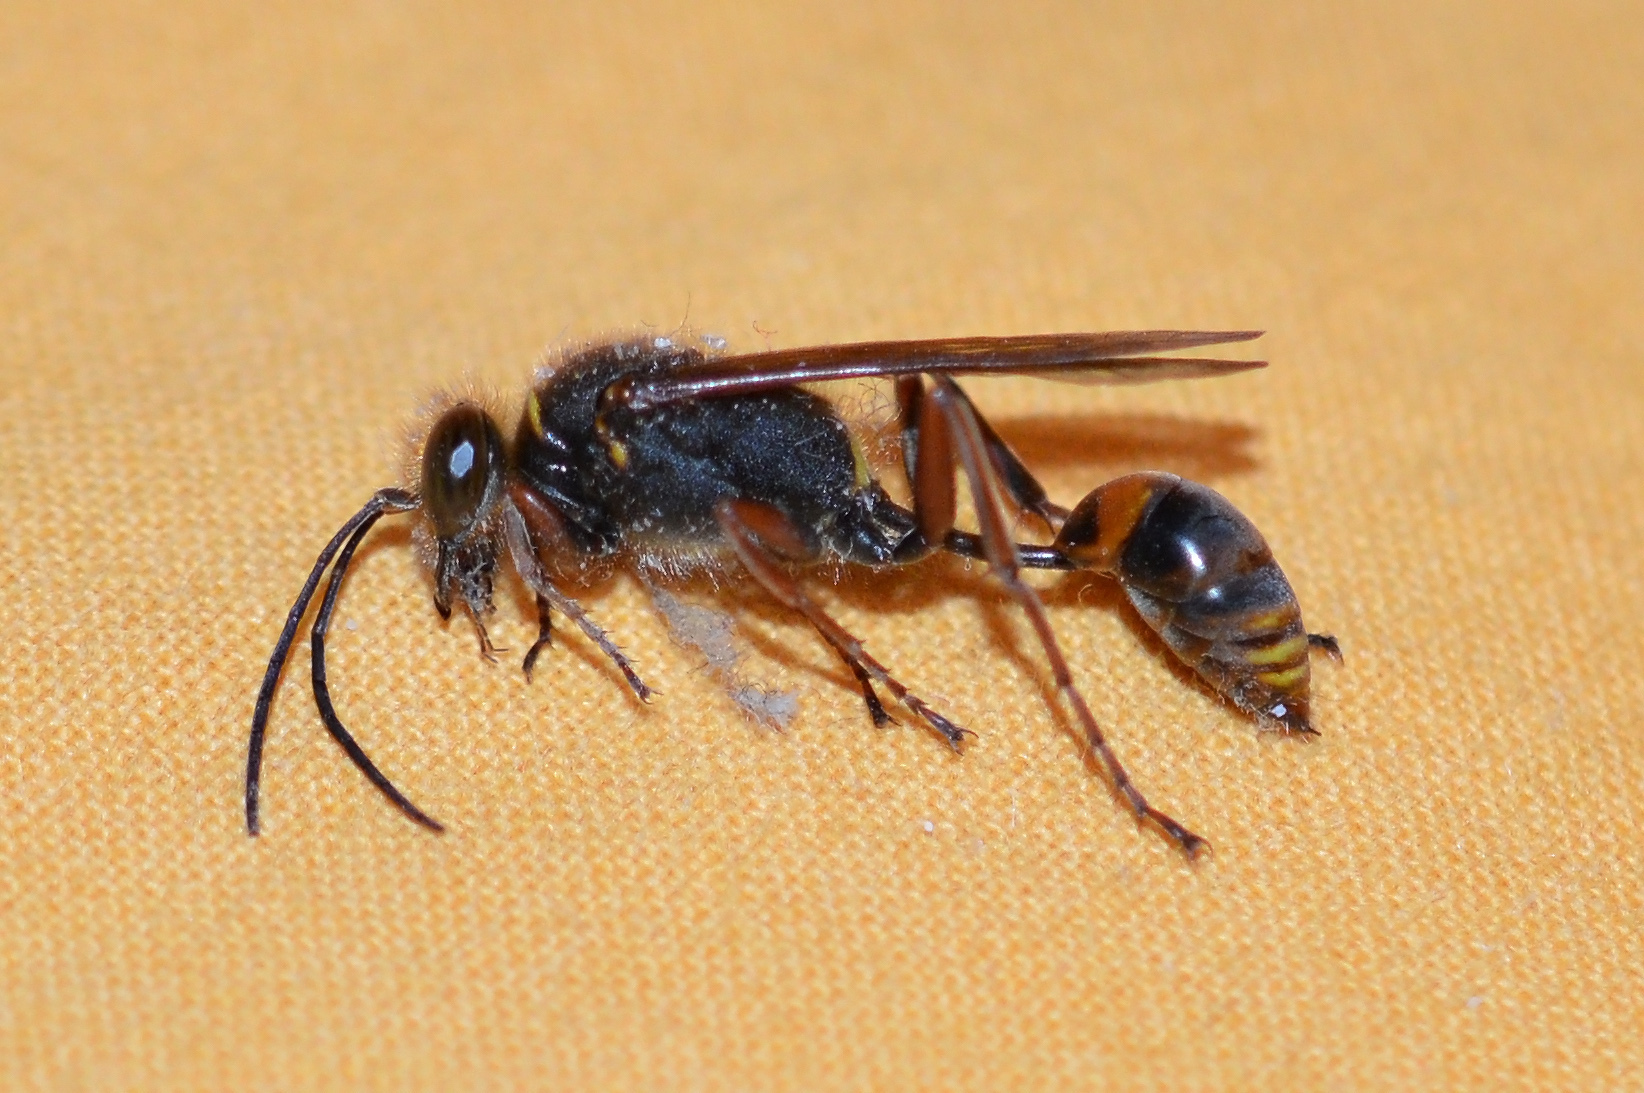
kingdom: Animalia
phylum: Arthropoda
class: Insecta
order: Hymenoptera
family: Sphecidae
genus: Sceliphron
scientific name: Sceliphron curvatum
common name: Pèlopèe
